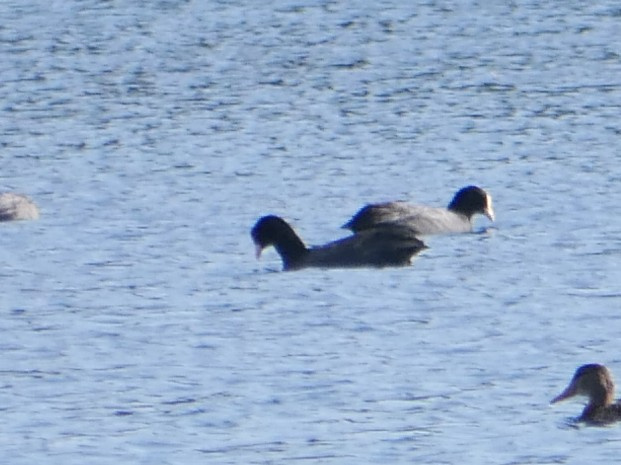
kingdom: Animalia
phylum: Chordata
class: Aves
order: Gruiformes
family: Rallidae
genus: Fulica
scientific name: Fulica atra
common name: Eurasian coot
